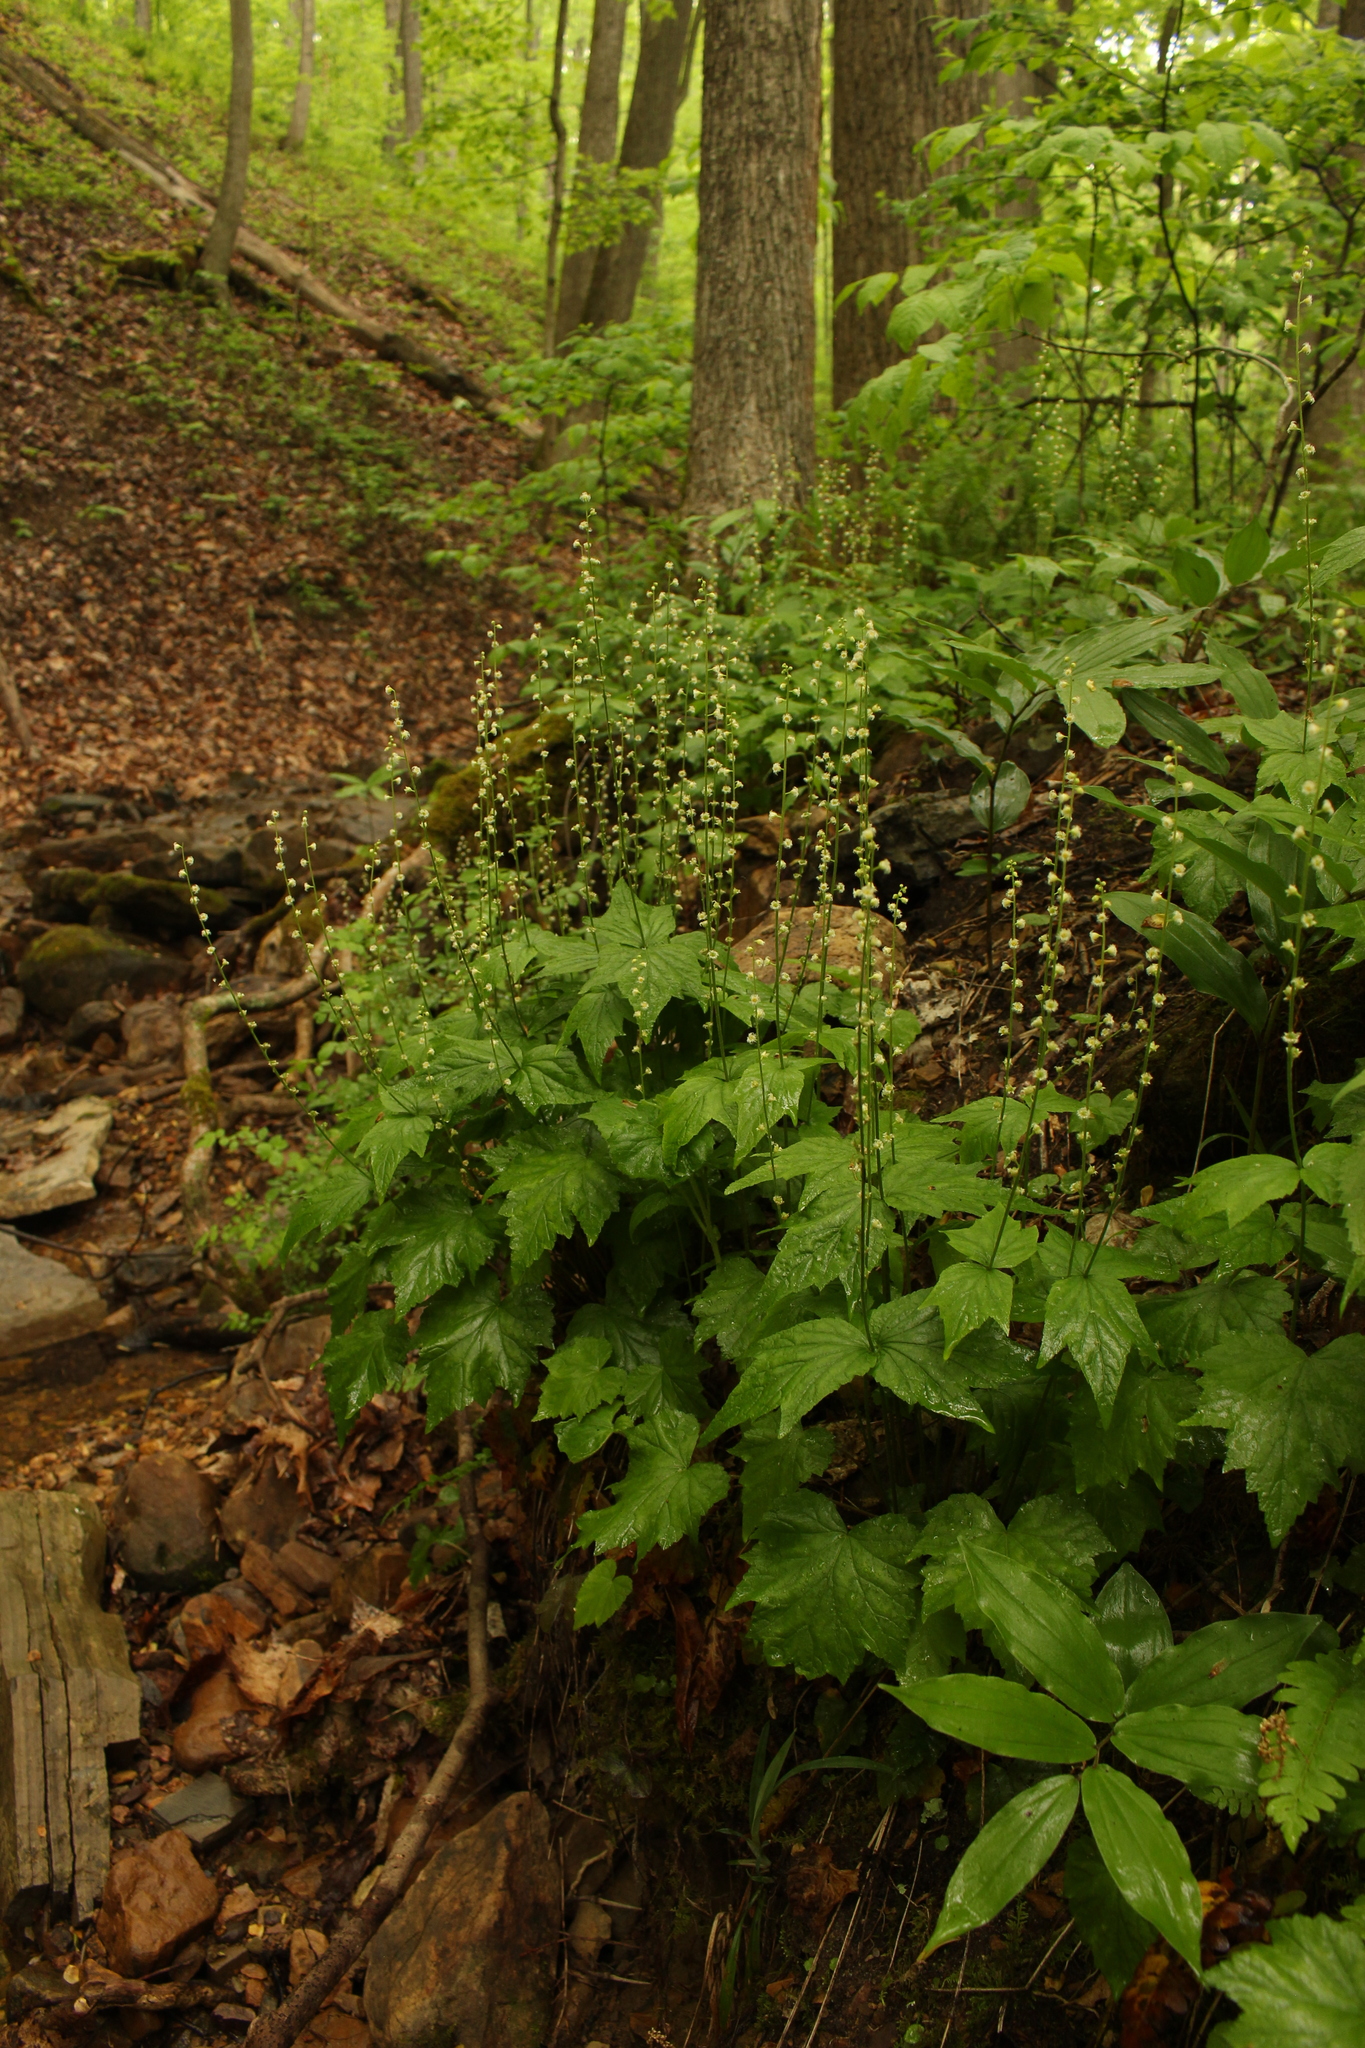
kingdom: Plantae
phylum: Tracheophyta
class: Magnoliopsida
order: Saxifragales
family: Saxifragaceae
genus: Mitella
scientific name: Mitella diphylla
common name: Coolwort
